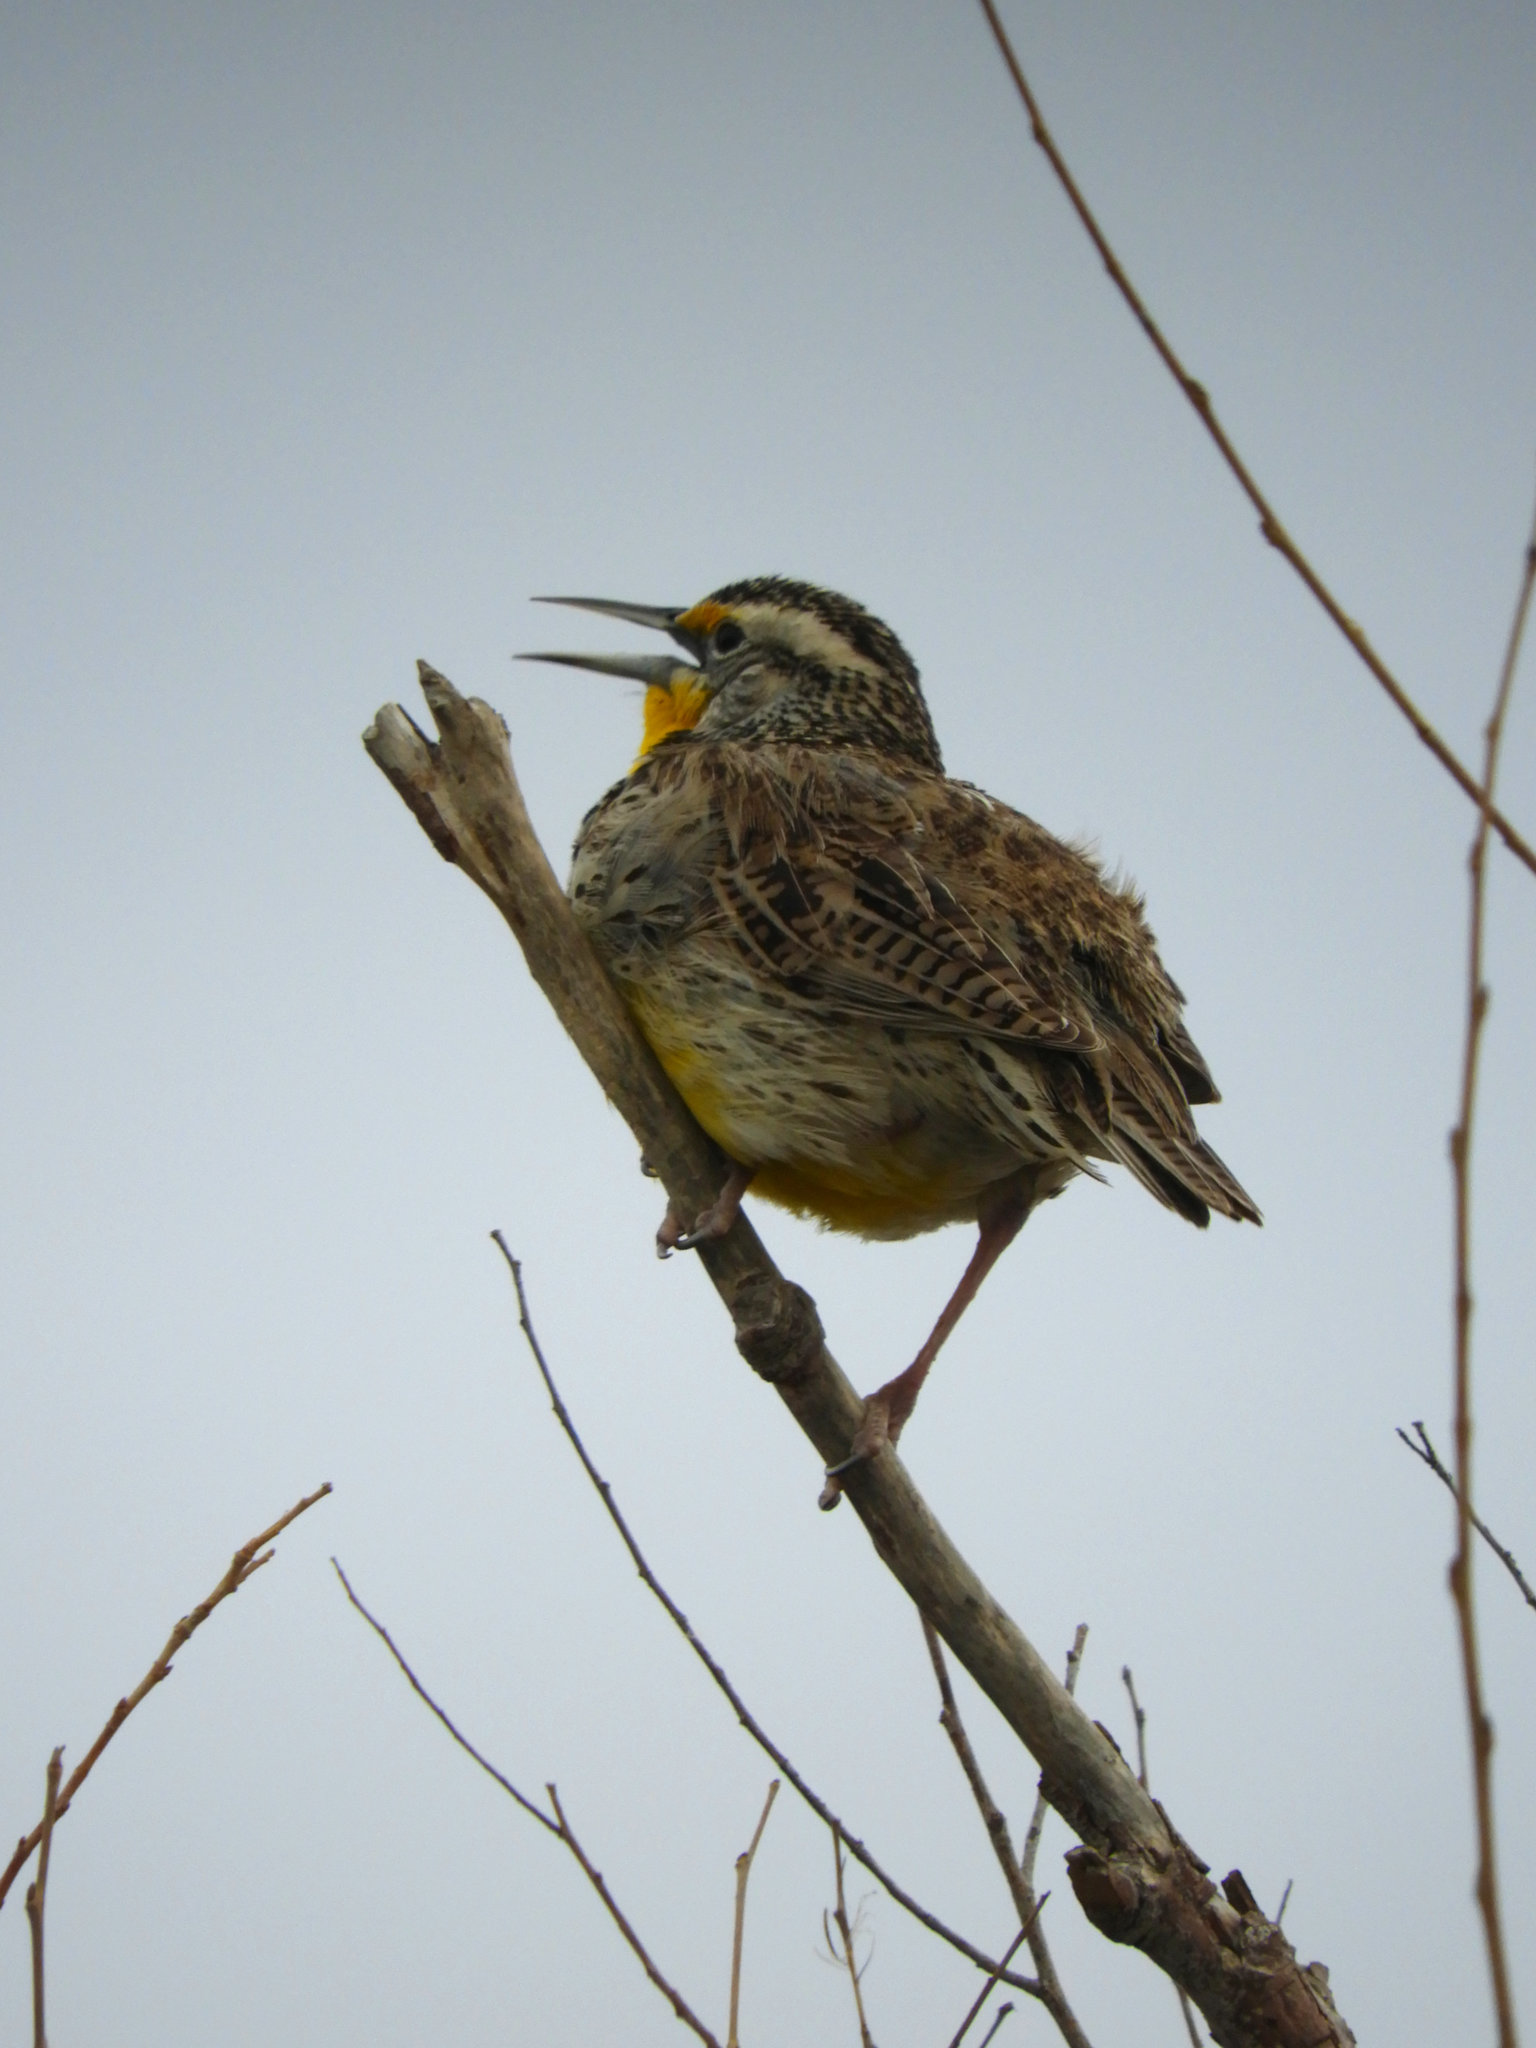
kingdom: Animalia
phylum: Chordata
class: Aves
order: Passeriformes
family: Icteridae
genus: Sturnella
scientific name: Sturnella neglecta
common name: Western meadowlark
